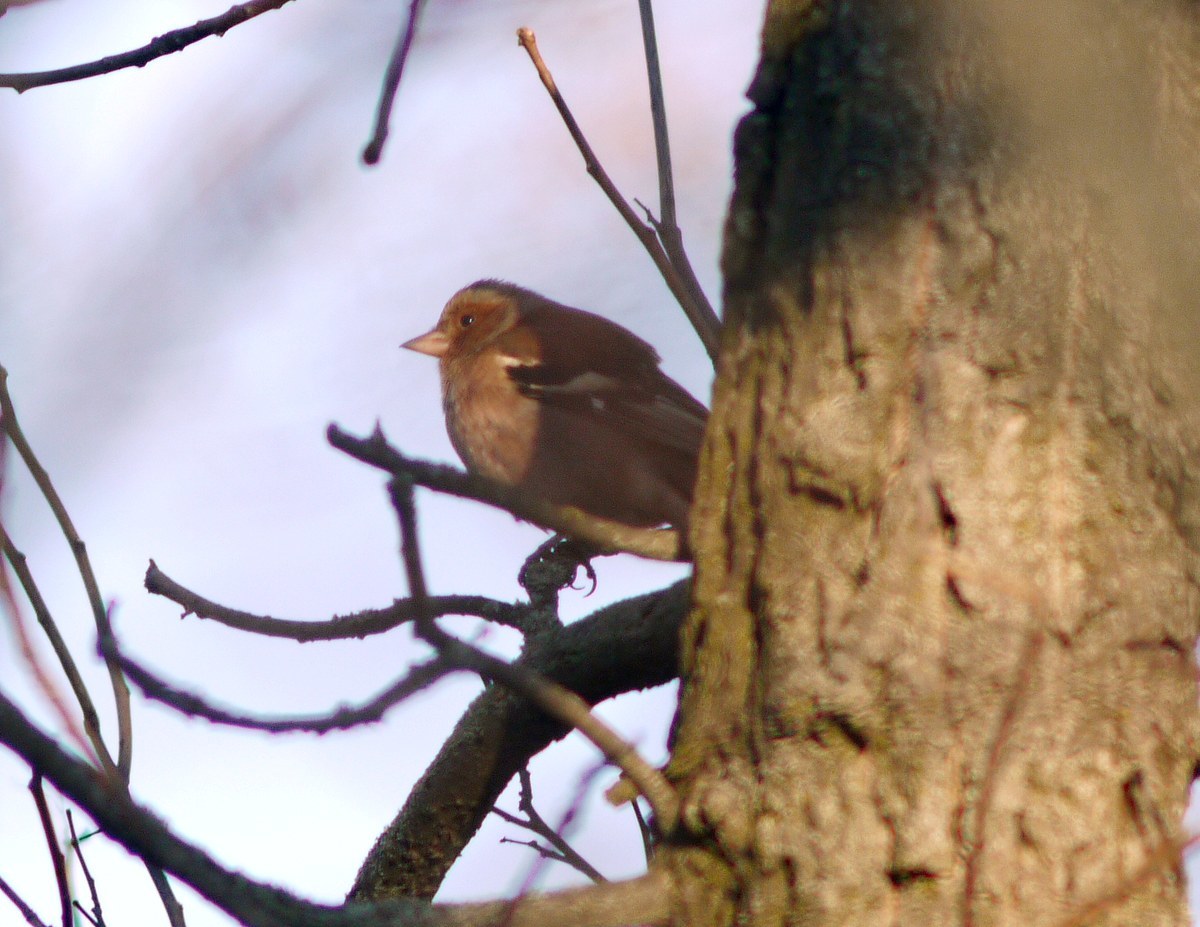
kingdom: Animalia
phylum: Chordata
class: Aves
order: Passeriformes
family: Fringillidae
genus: Fringilla
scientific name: Fringilla coelebs
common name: Common chaffinch
